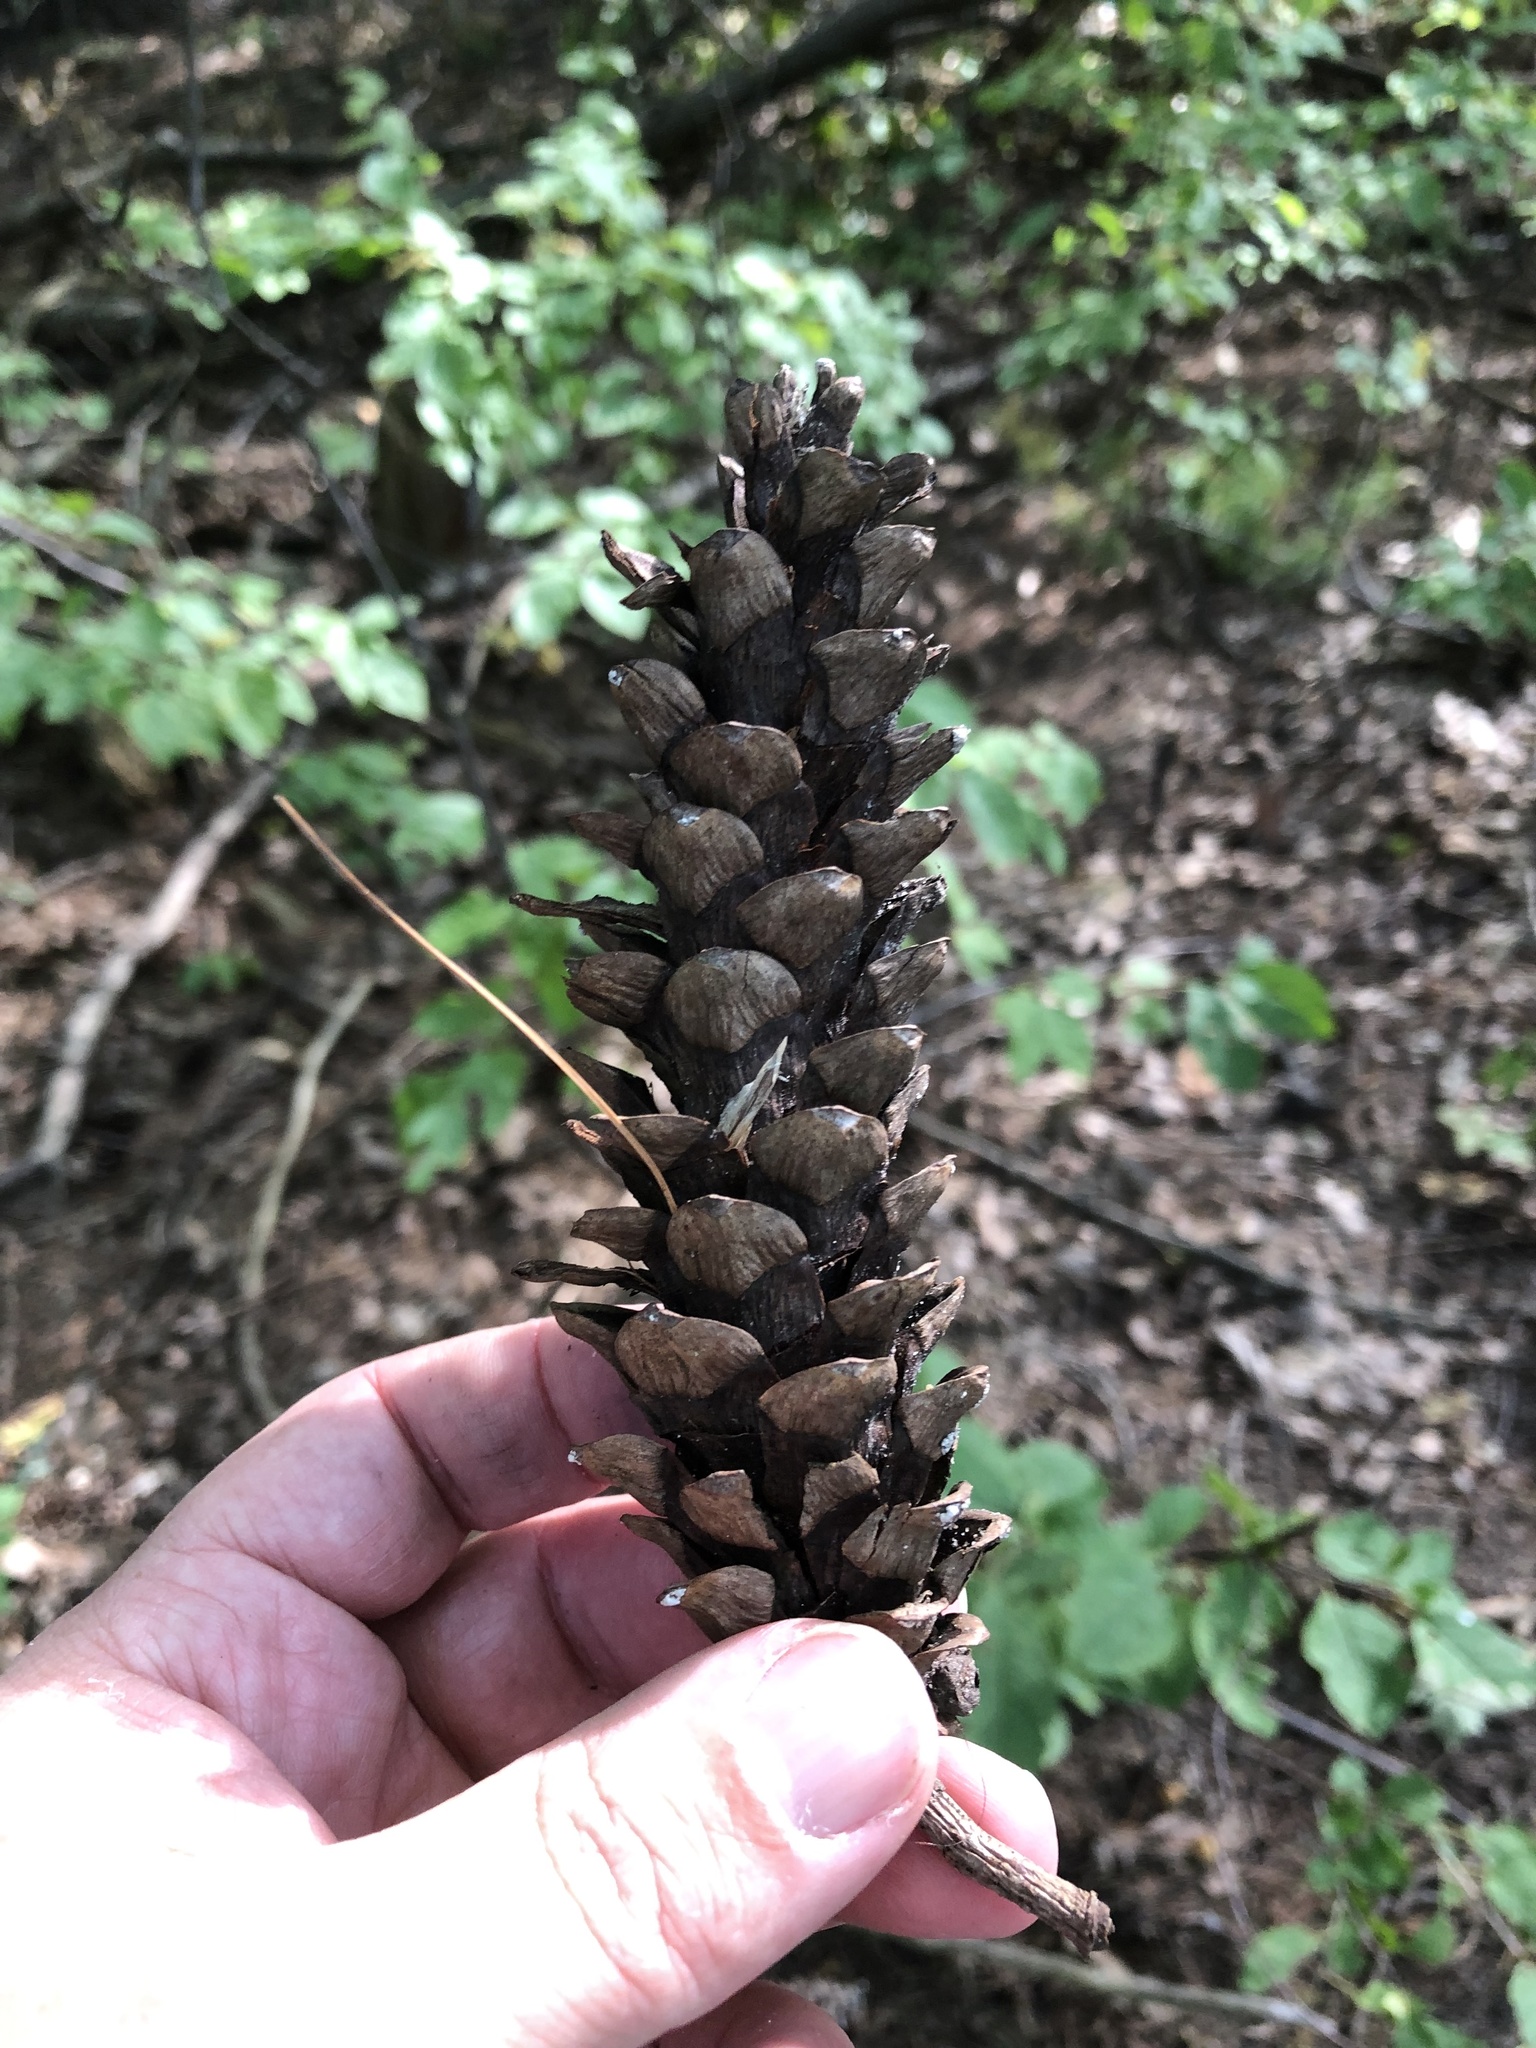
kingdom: Plantae
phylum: Tracheophyta
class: Pinopsida
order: Pinales
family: Pinaceae
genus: Pinus
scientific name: Pinus strobus
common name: Weymouth pine
